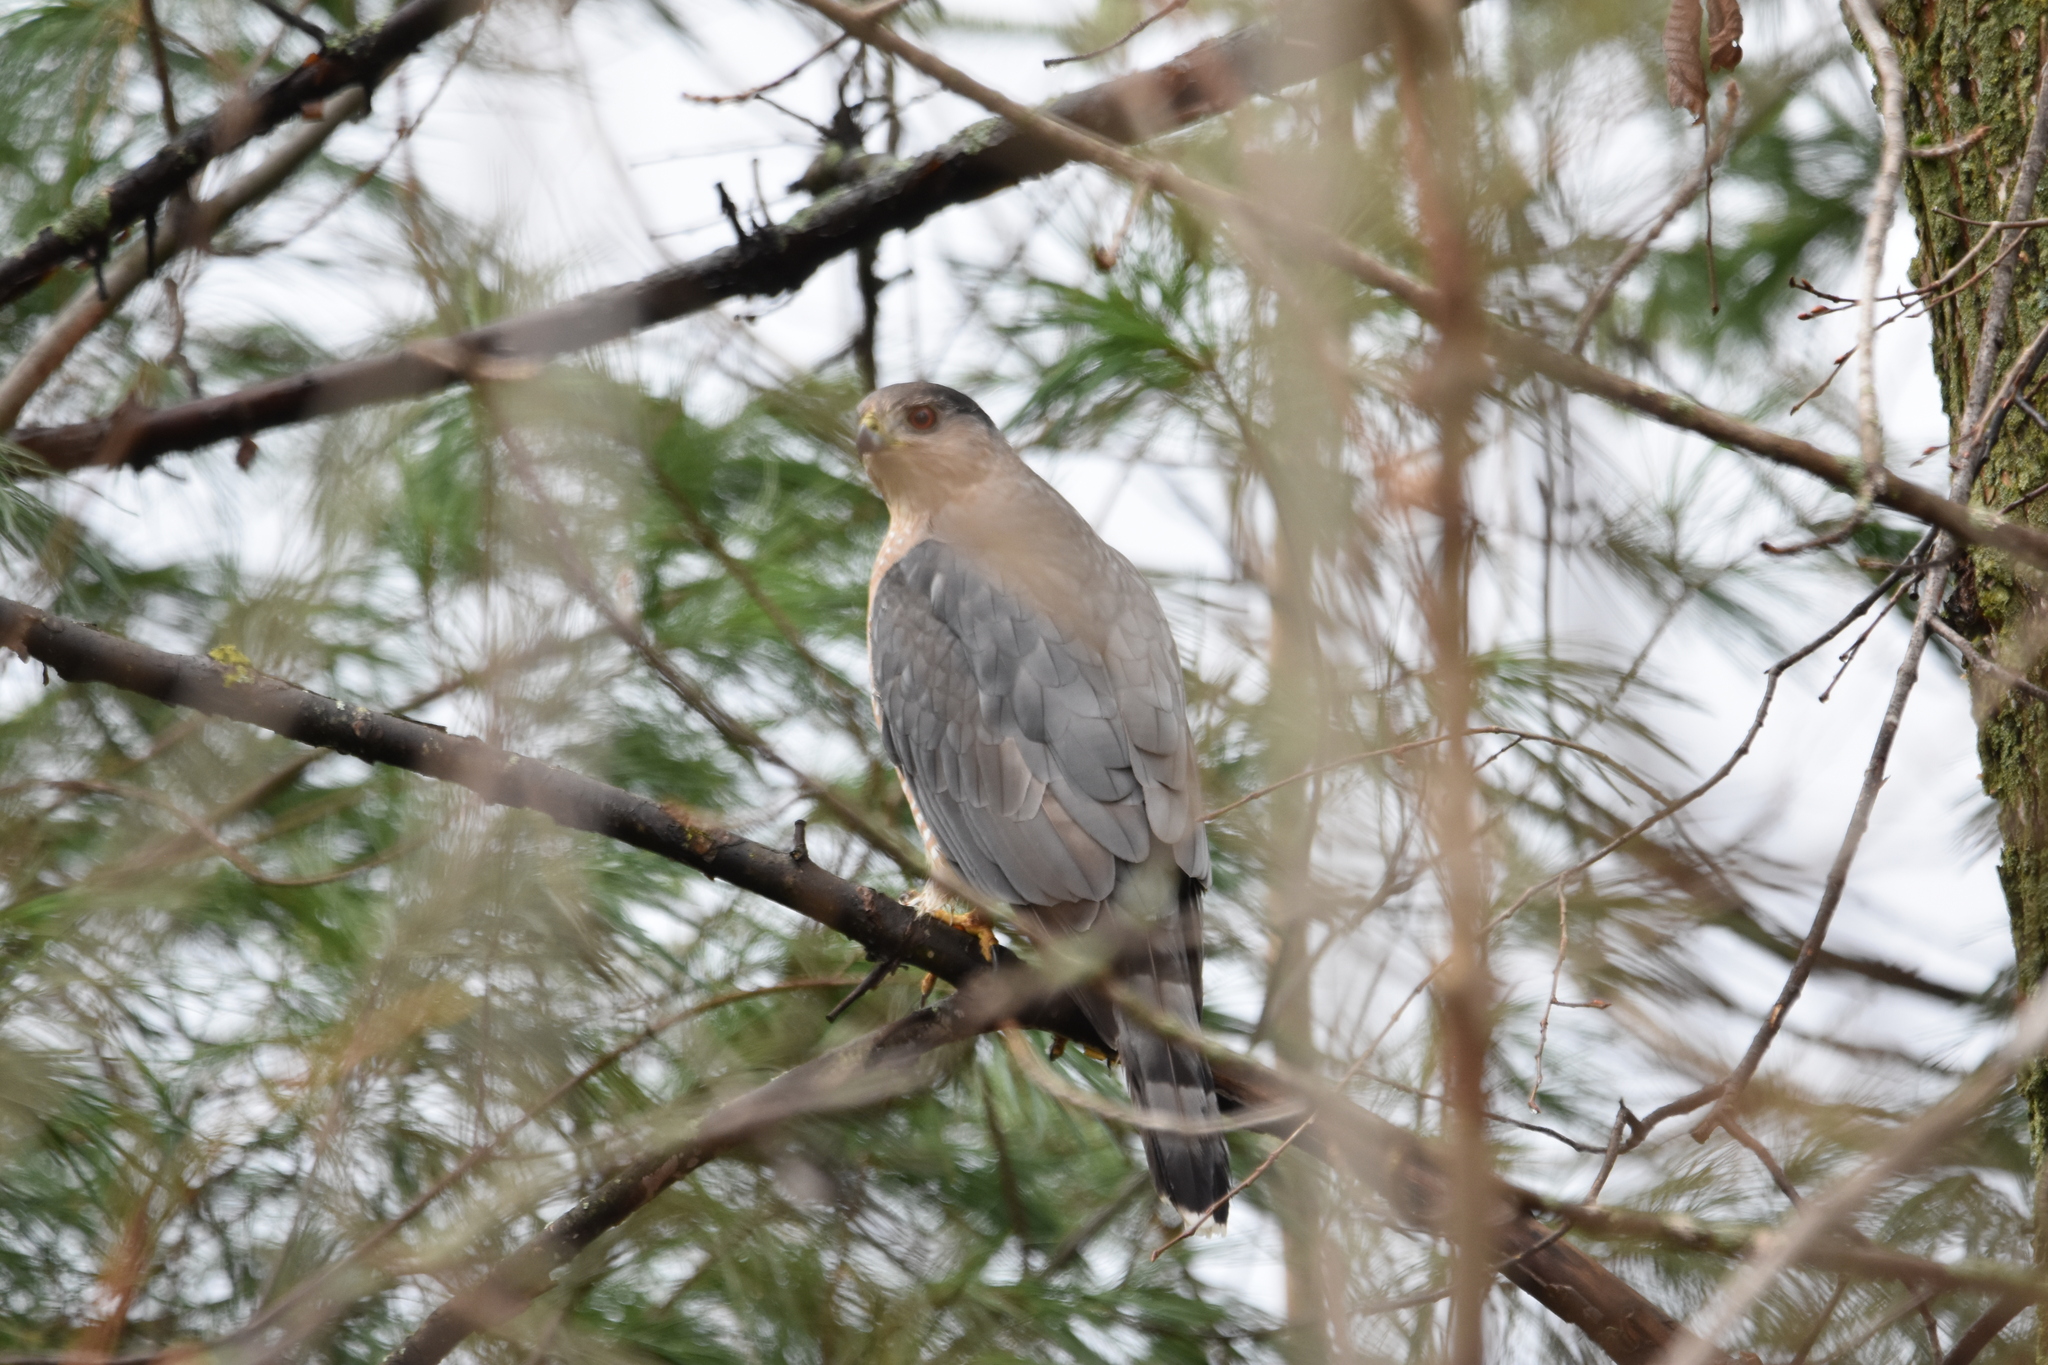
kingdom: Animalia
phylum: Chordata
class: Aves
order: Accipitriformes
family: Accipitridae
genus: Accipiter
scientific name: Accipiter cooperii
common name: Cooper's hawk
